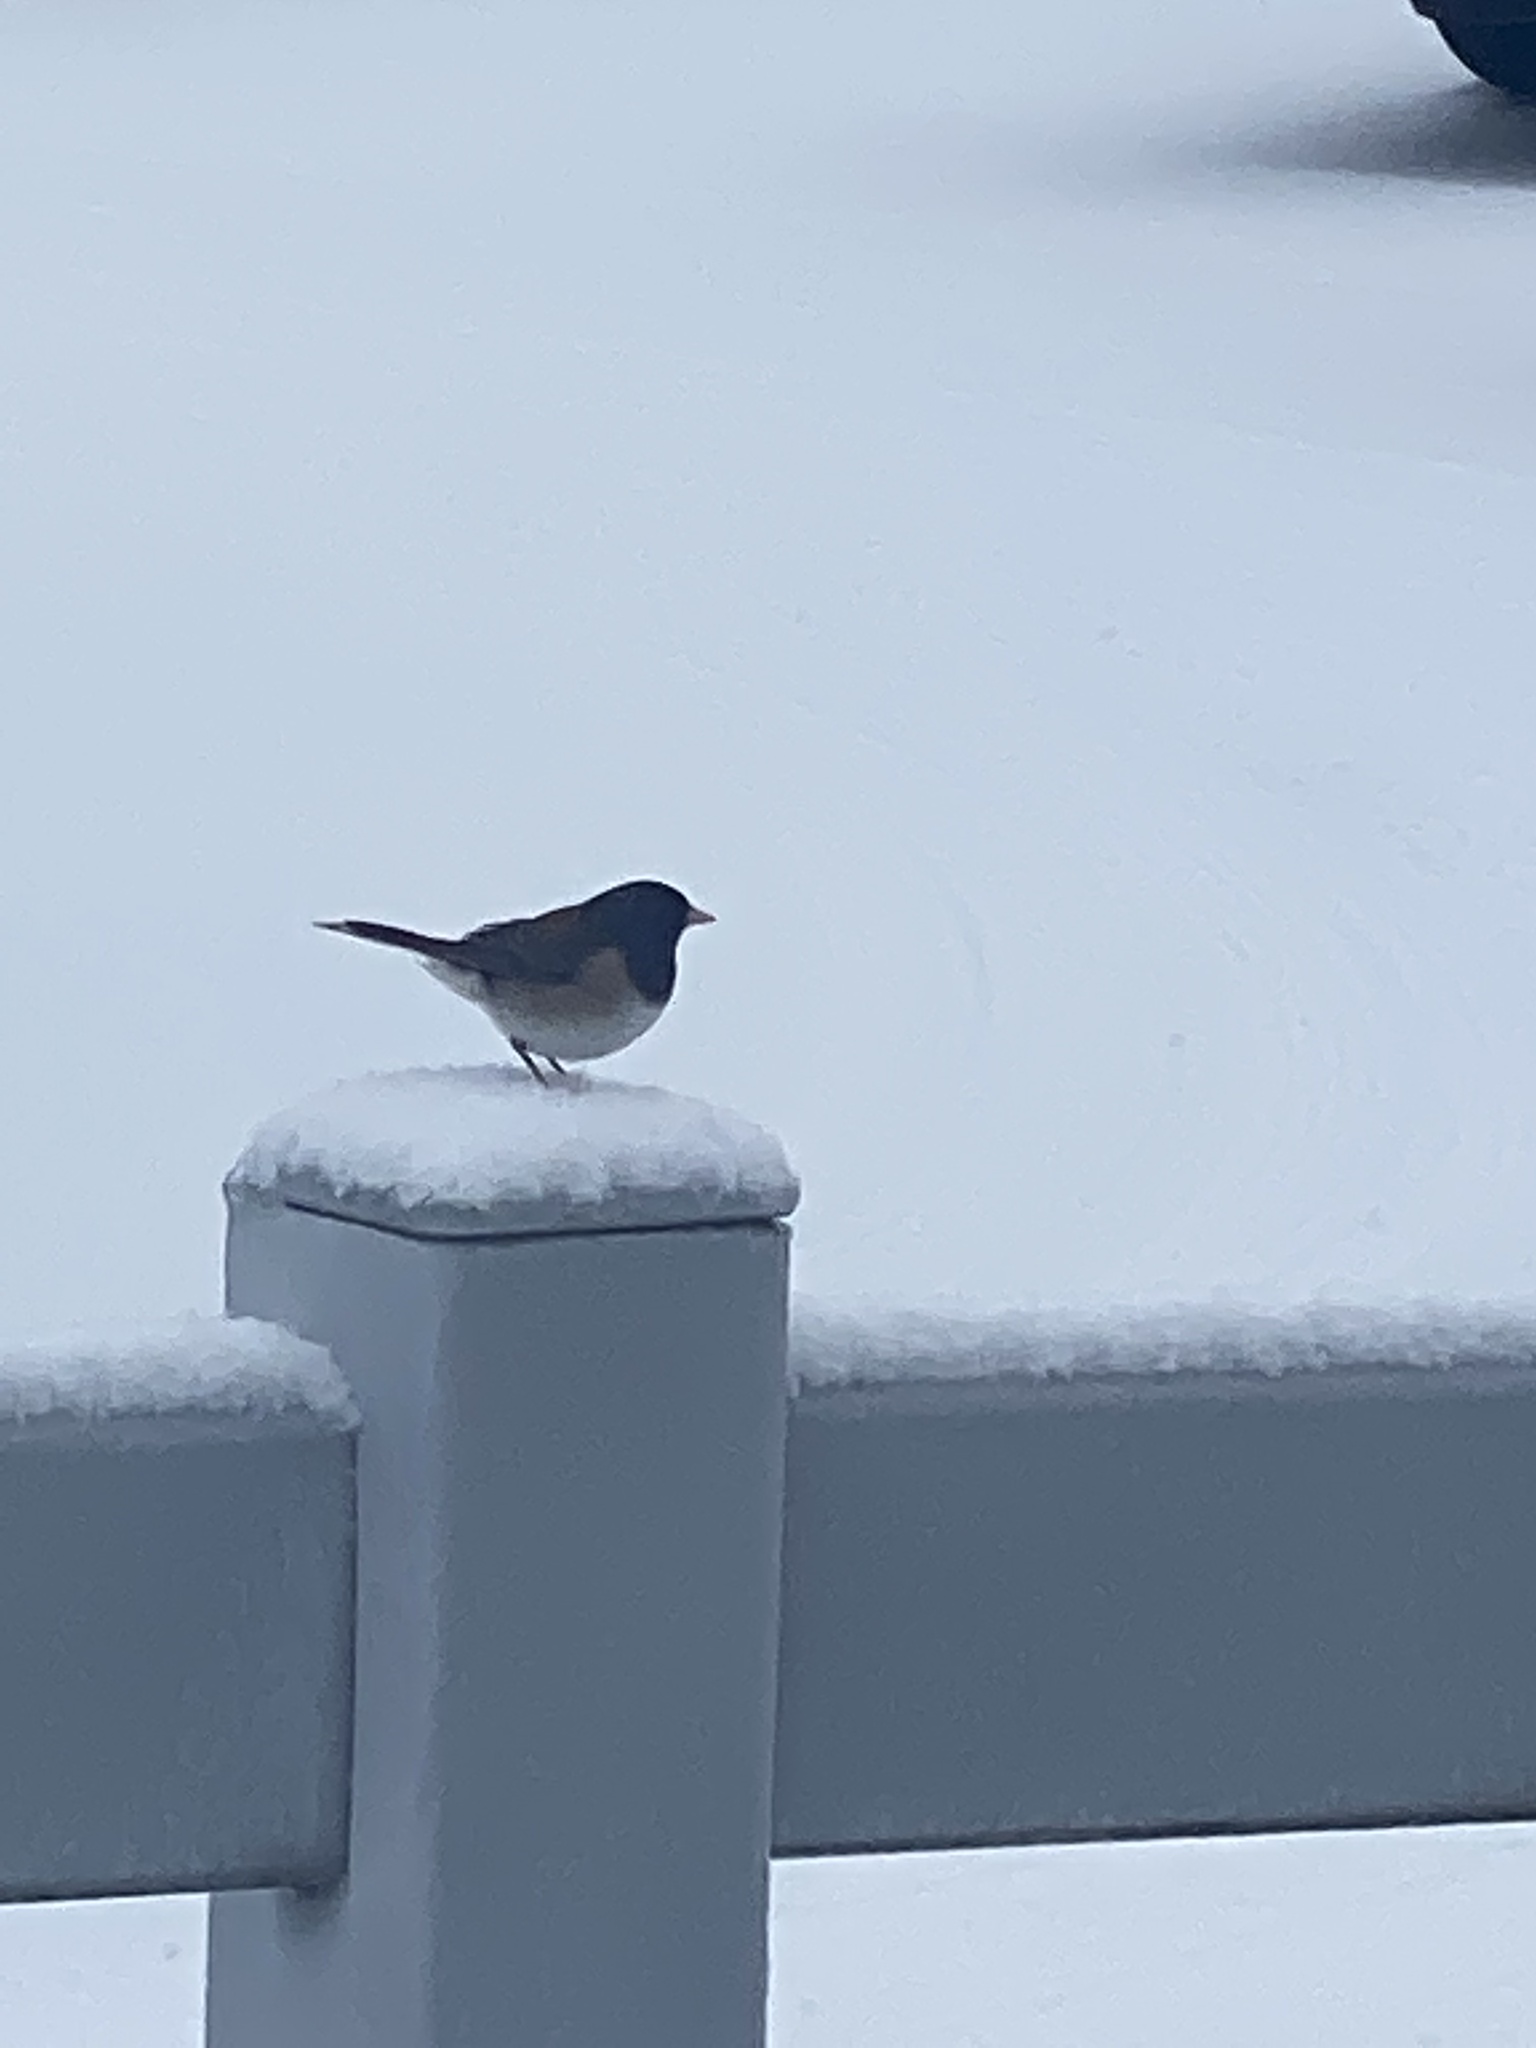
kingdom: Animalia
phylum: Chordata
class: Aves
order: Passeriformes
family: Passerellidae
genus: Junco
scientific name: Junco hyemalis
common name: Dark-eyed junco
